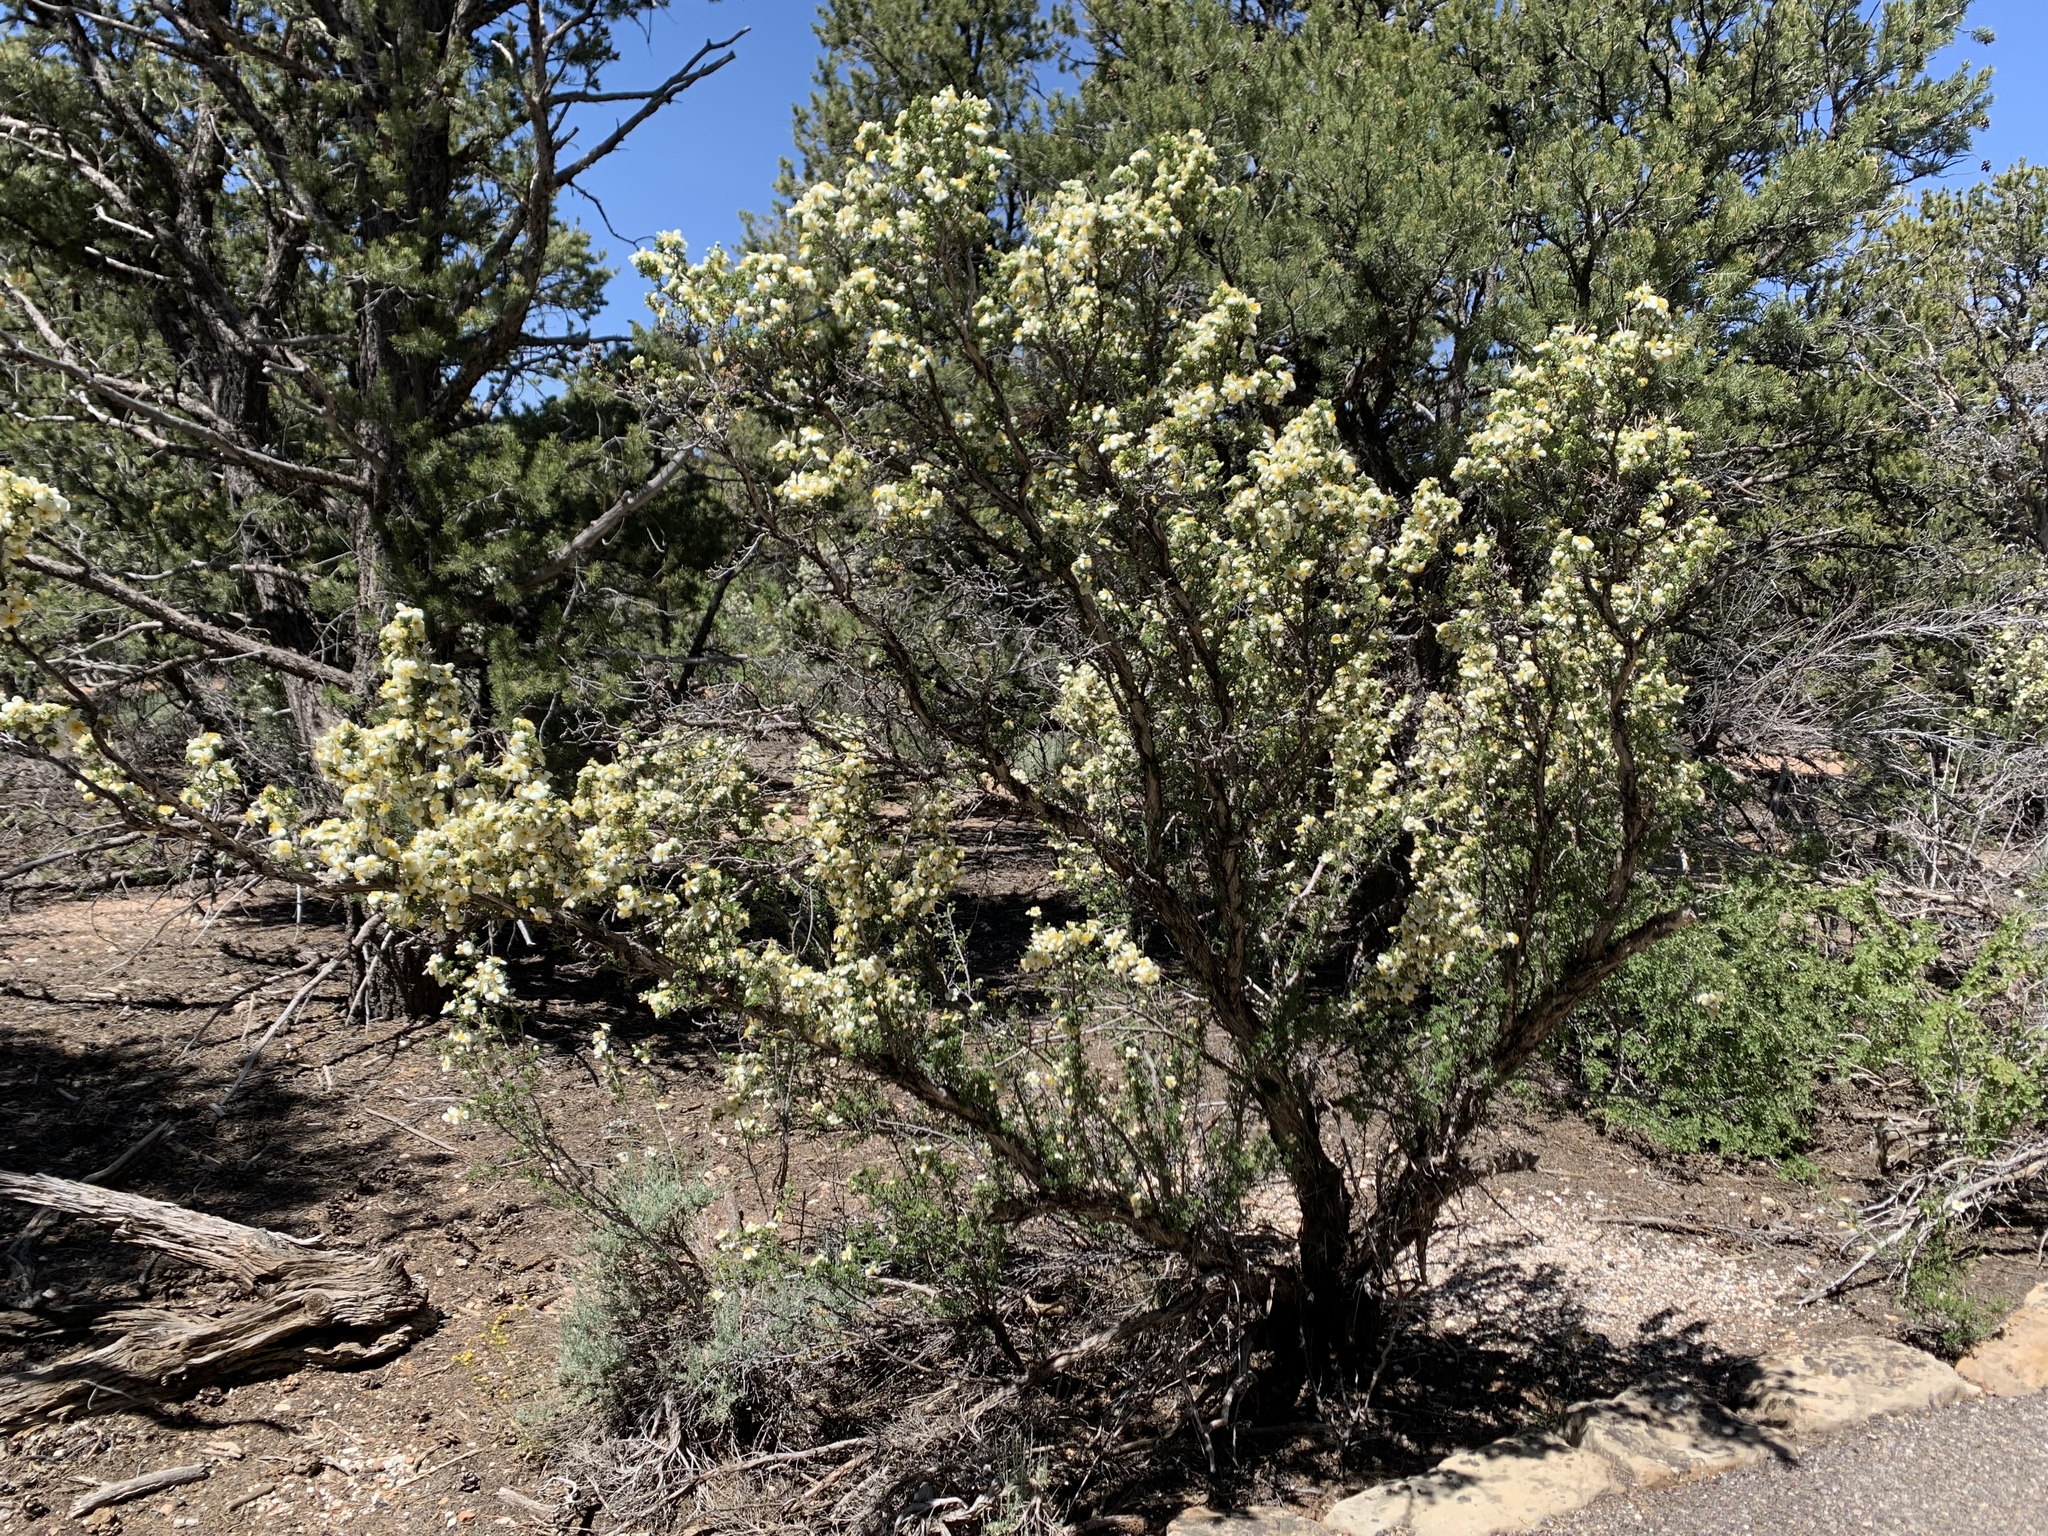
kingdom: Plantae
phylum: Tracheophyta
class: Magnoliopsida
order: Rosales
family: Rosaceae
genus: Purshia
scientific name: Purshia stansburiana
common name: Stansbury's cliffrose
